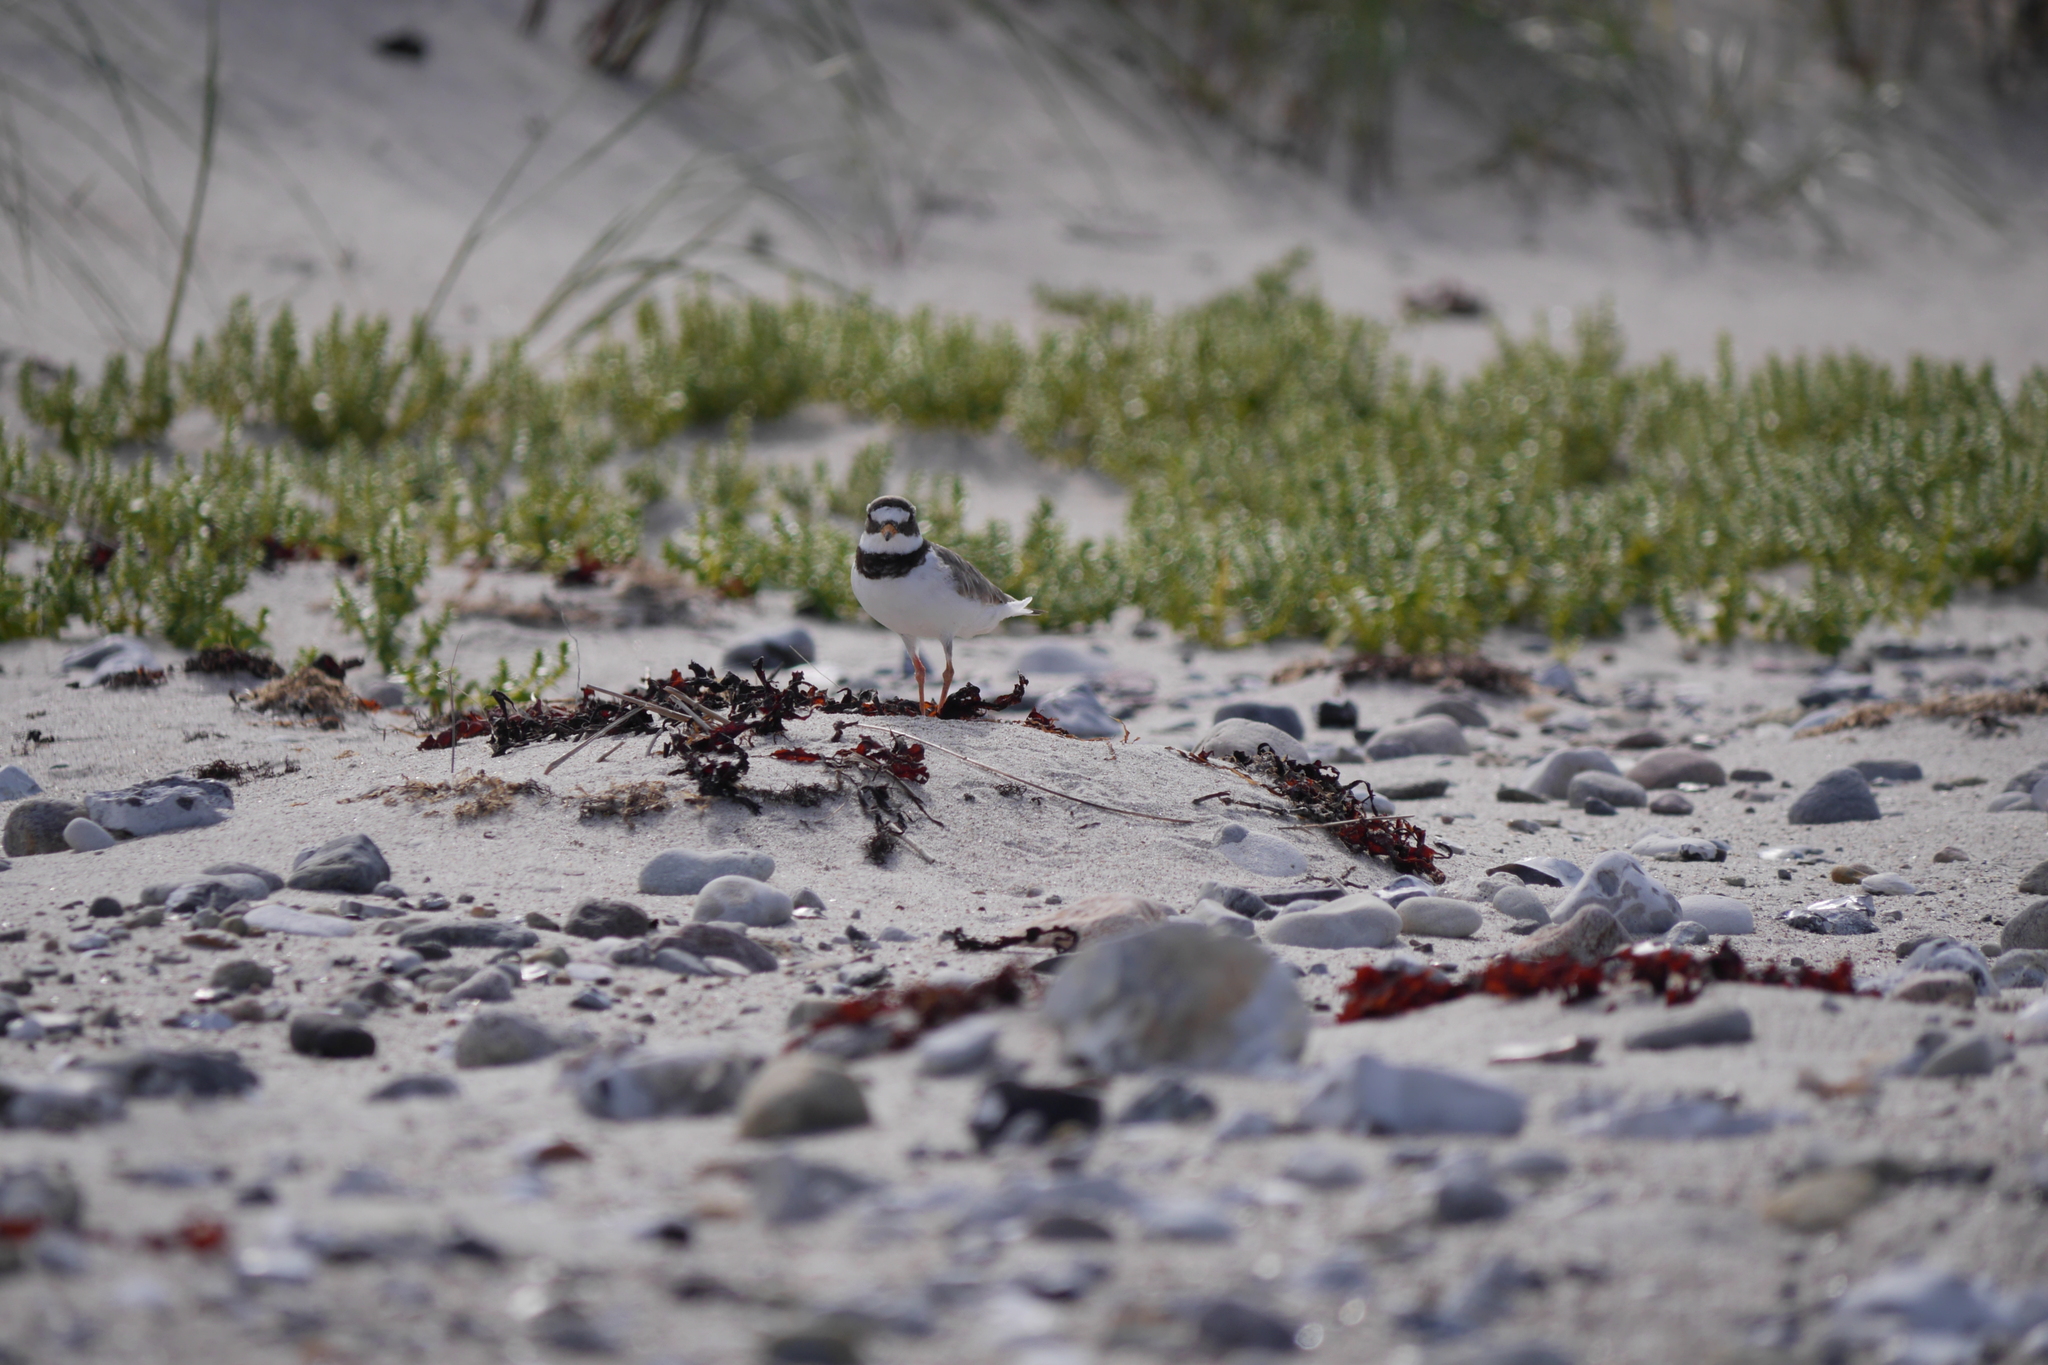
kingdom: Animalia
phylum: Chordata
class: Aves
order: Charadriiformes
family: Charadriidae
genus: Charadrius
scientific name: Charadrius hiaticula
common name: Common ringed plover
